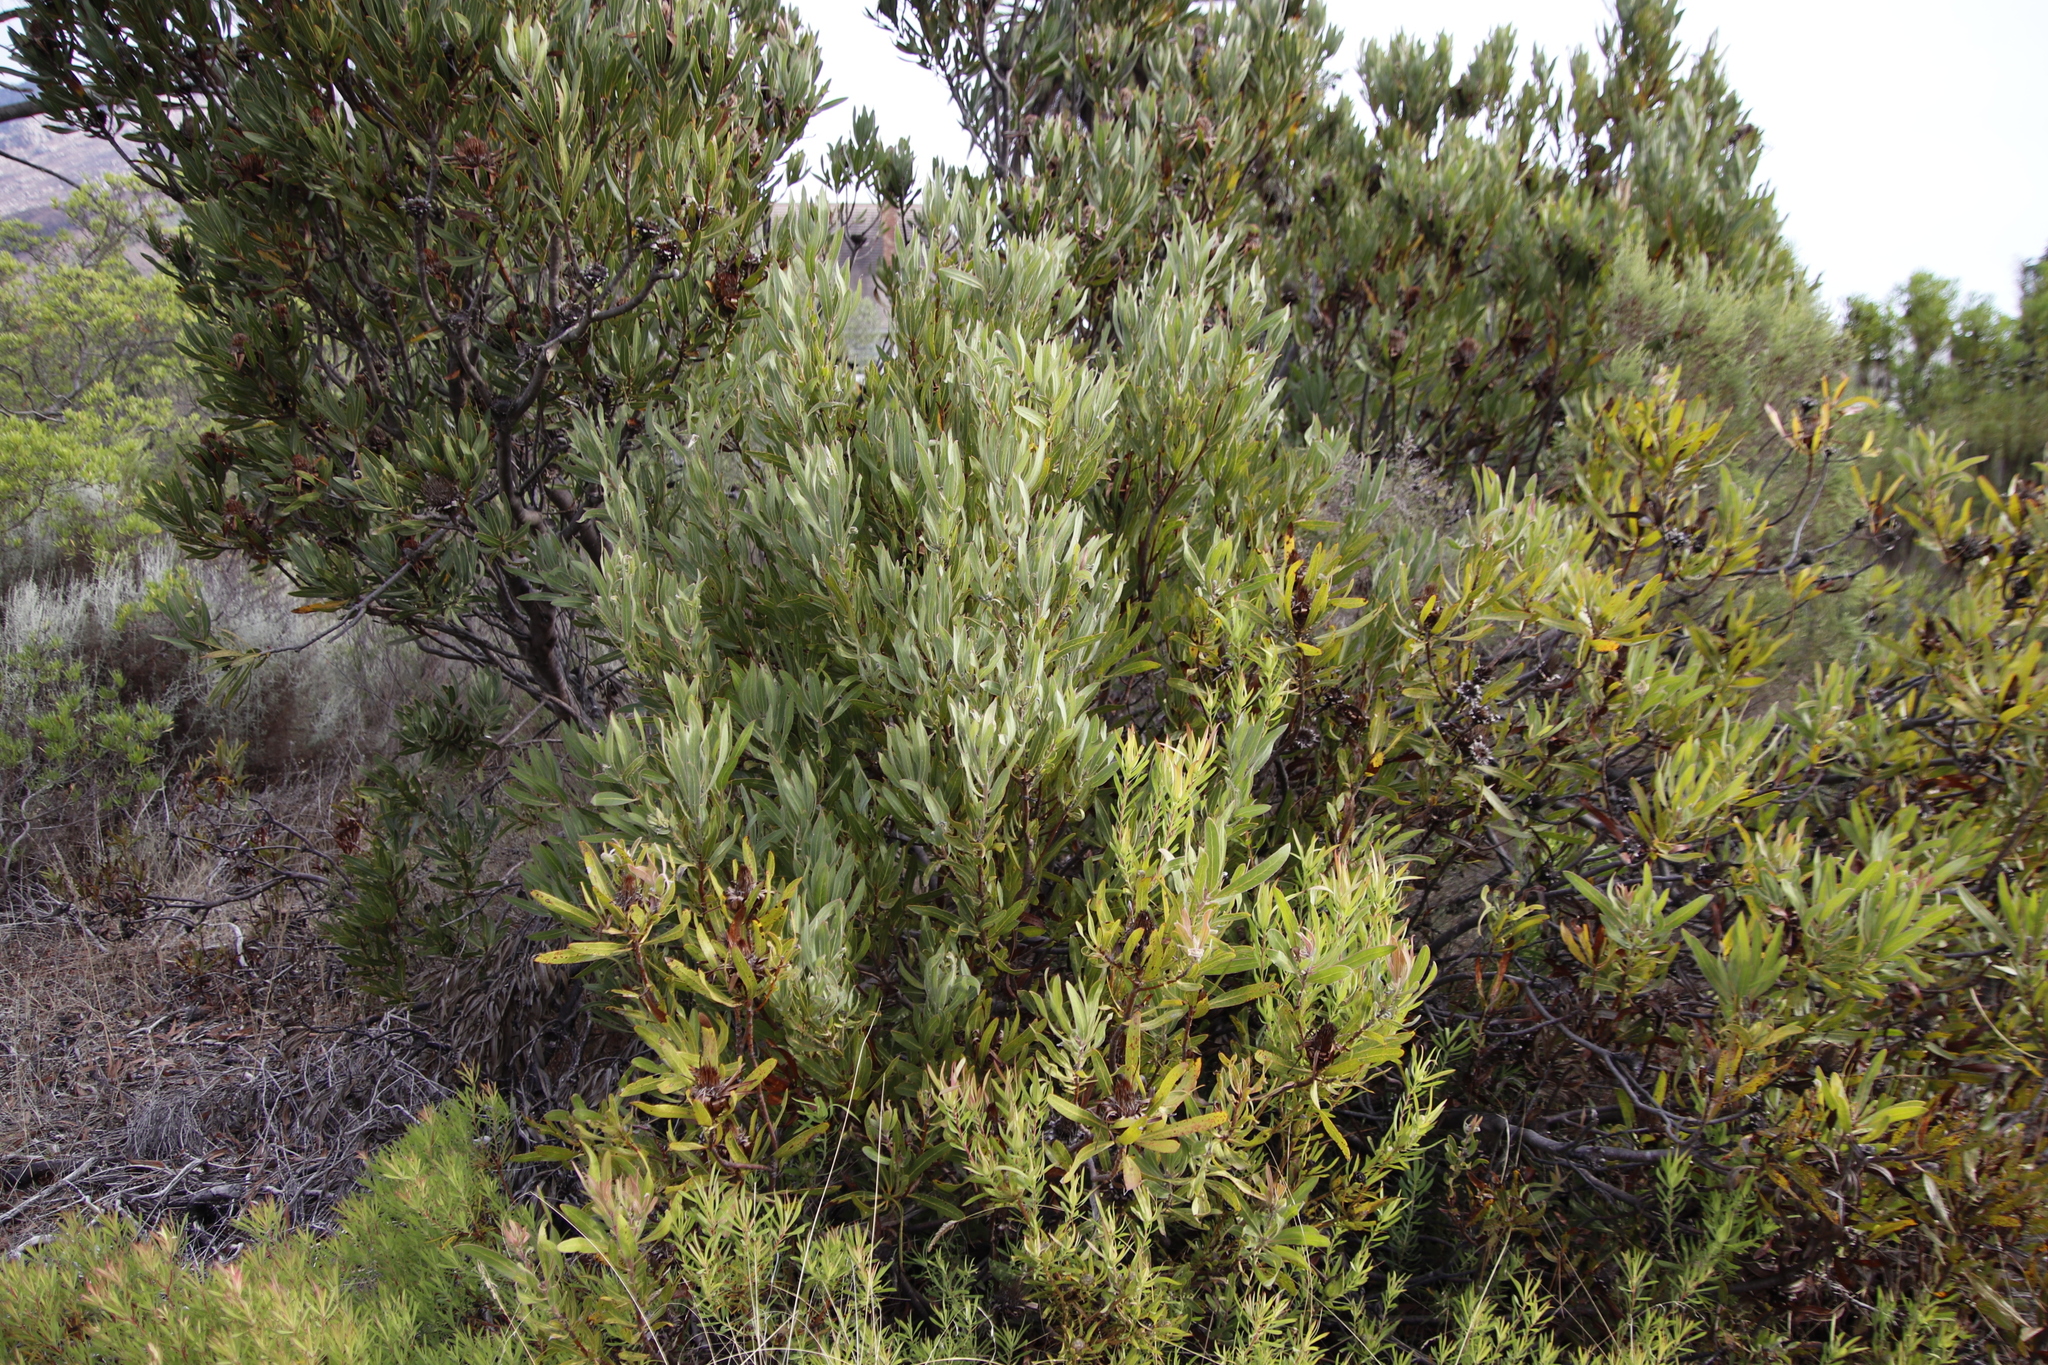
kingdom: Plantae
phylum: Tracheophyta
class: Magnoliopsida
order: Proteales
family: Proteaceae
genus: Protea
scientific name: Protea laurifolia
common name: Grey-leaf sugarbsh
